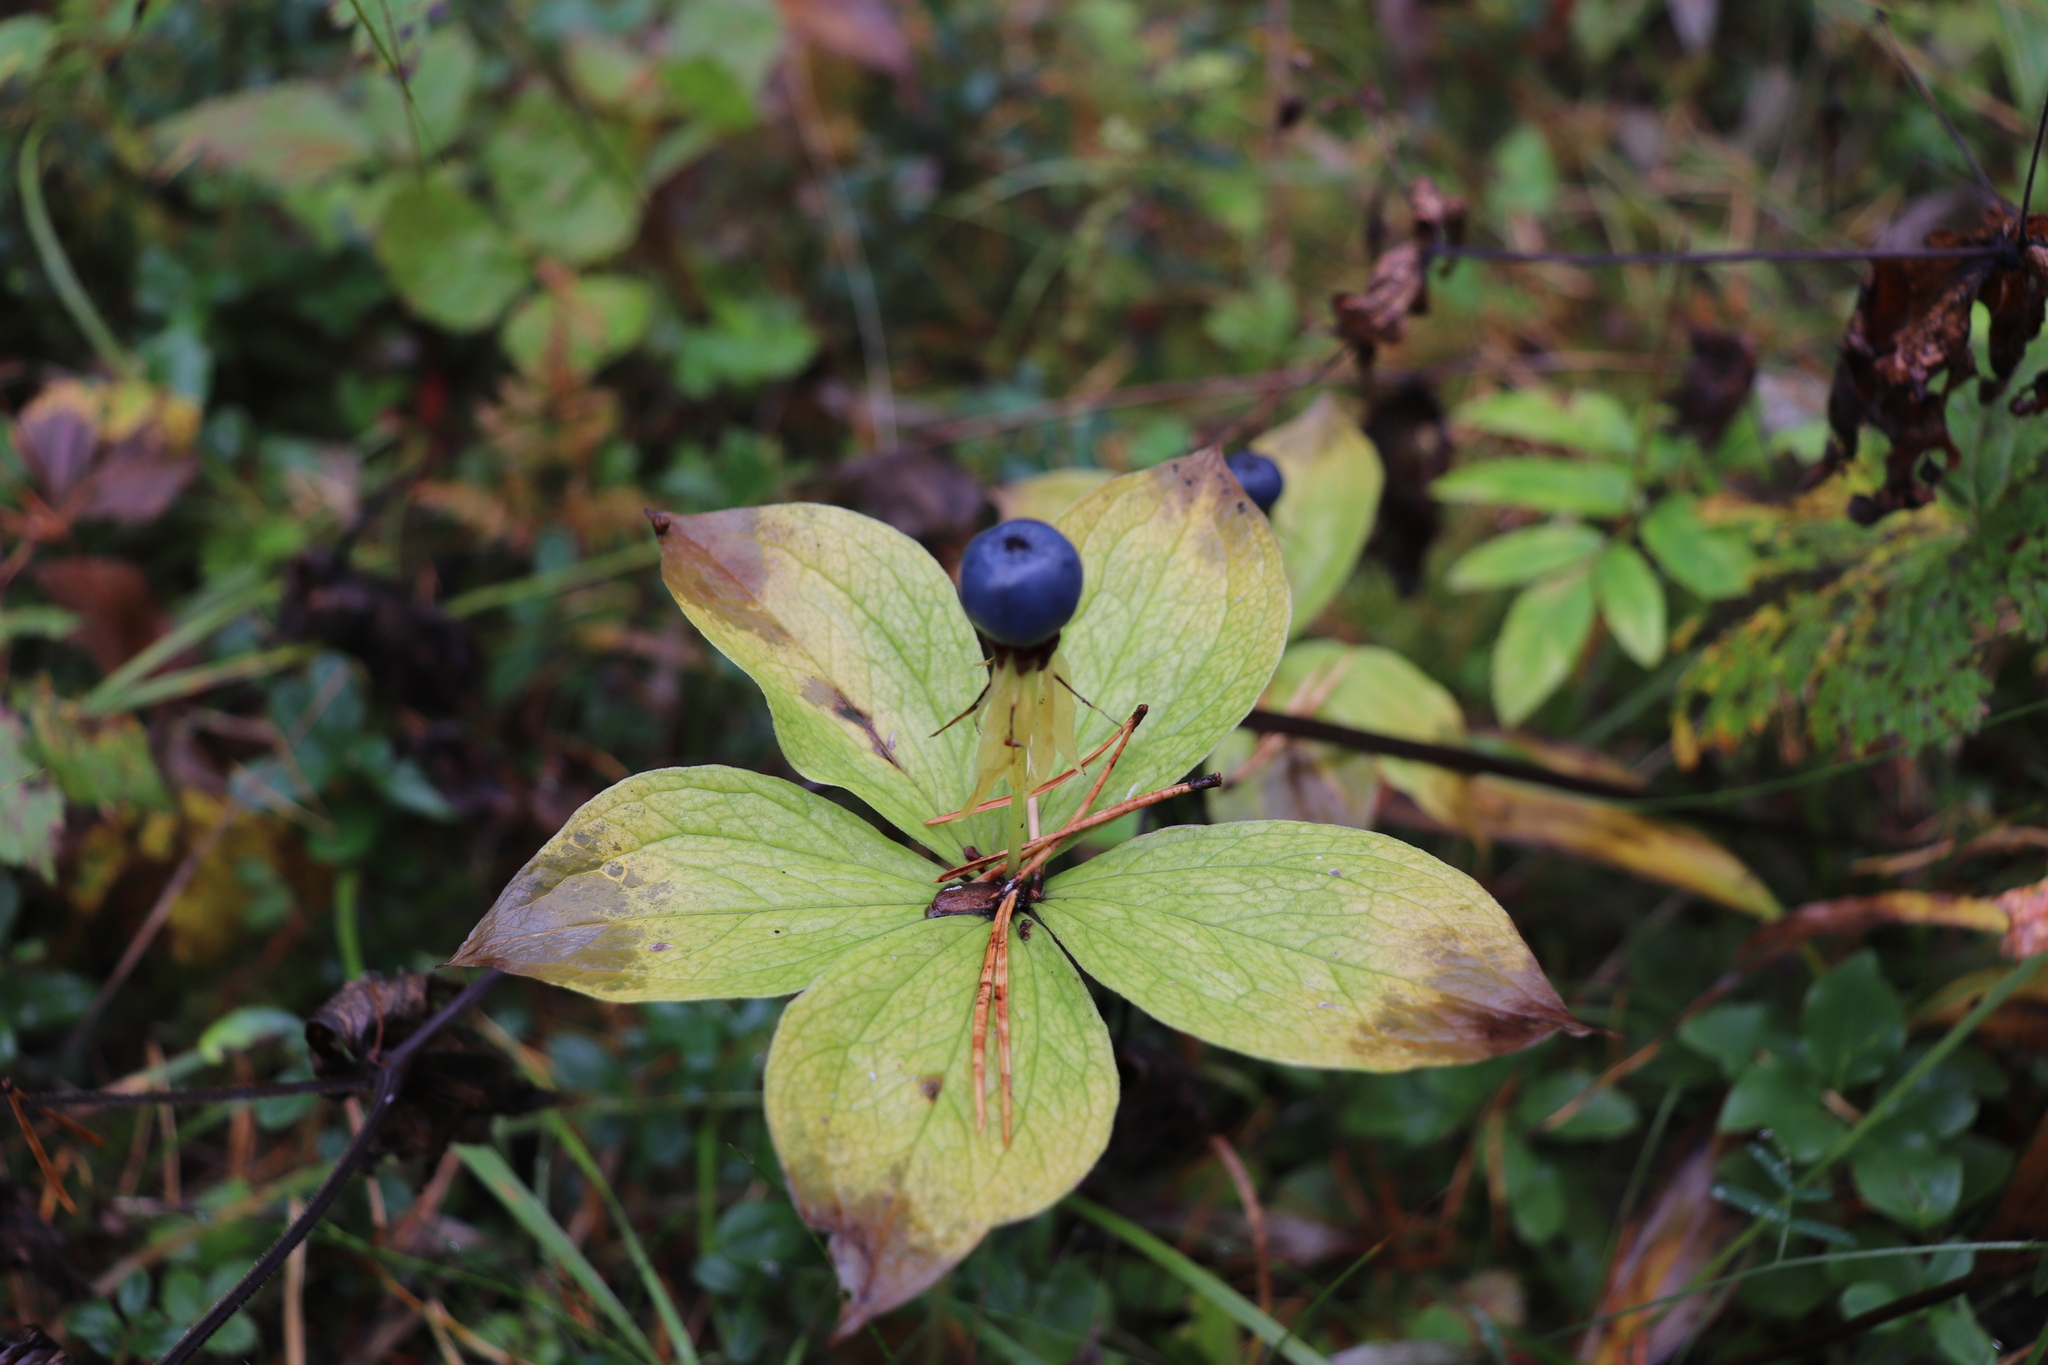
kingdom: Plantae
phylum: Tracheophyta
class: Liliopsida
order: Liliales
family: Melanthiaceae
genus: Paris
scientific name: Paris quadrifolia
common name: Herb-paris
